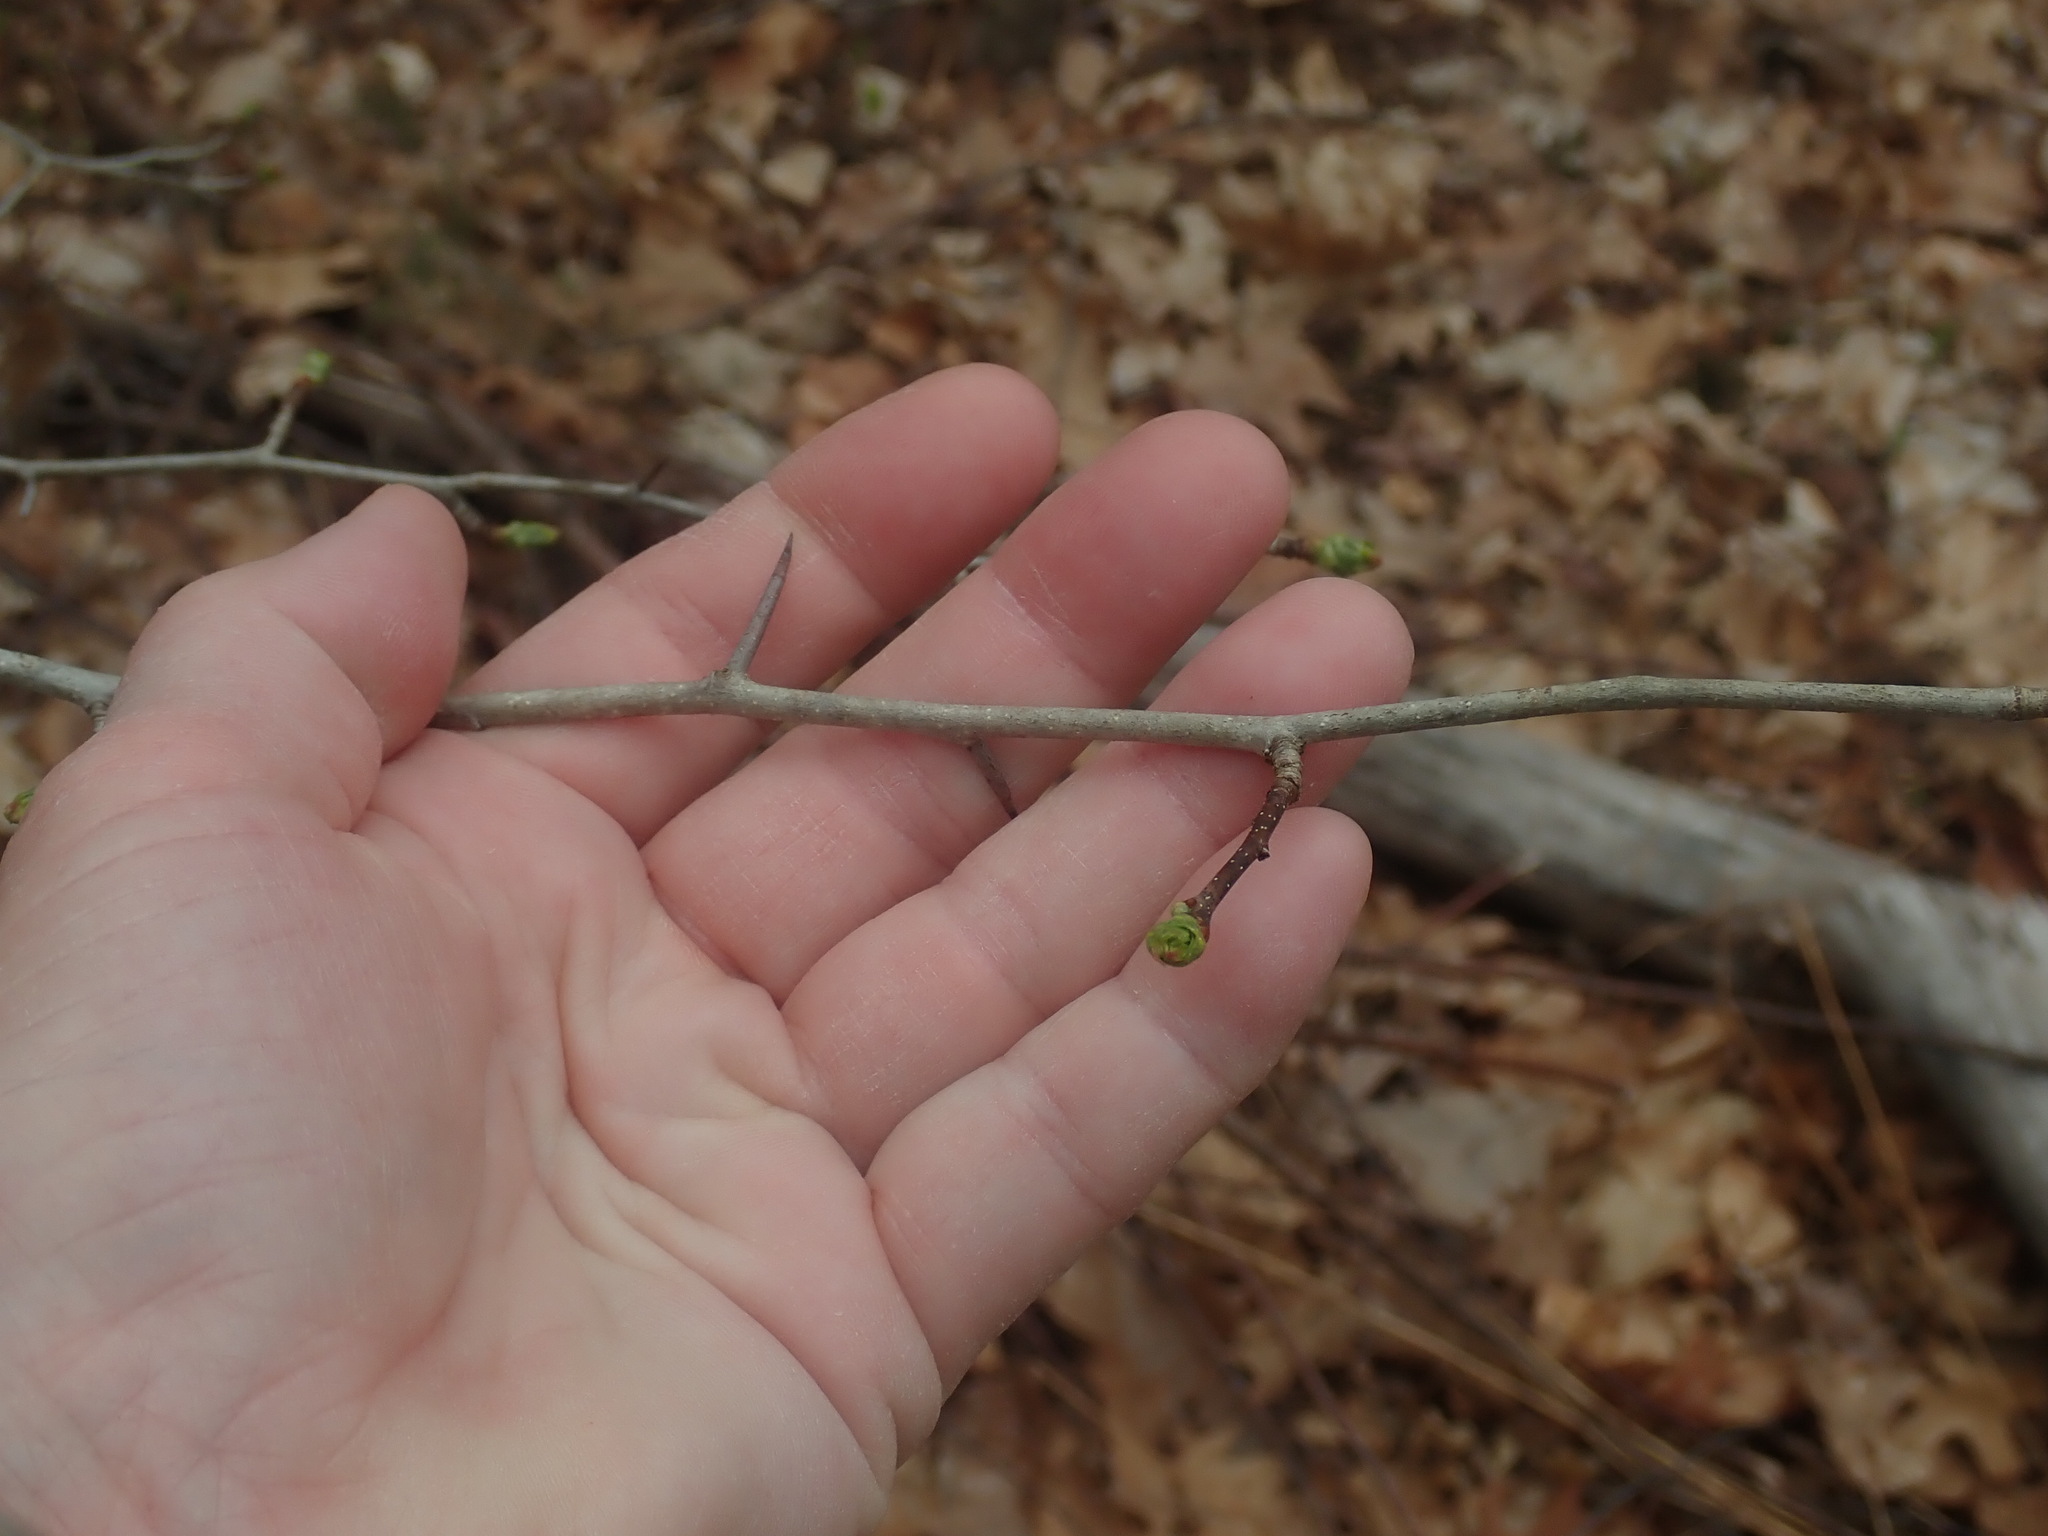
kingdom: Plantae
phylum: Tracheophyta
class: Magnoliopsida
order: Rosales
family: Rosaceae
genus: Crataegus
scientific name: Crataegus
